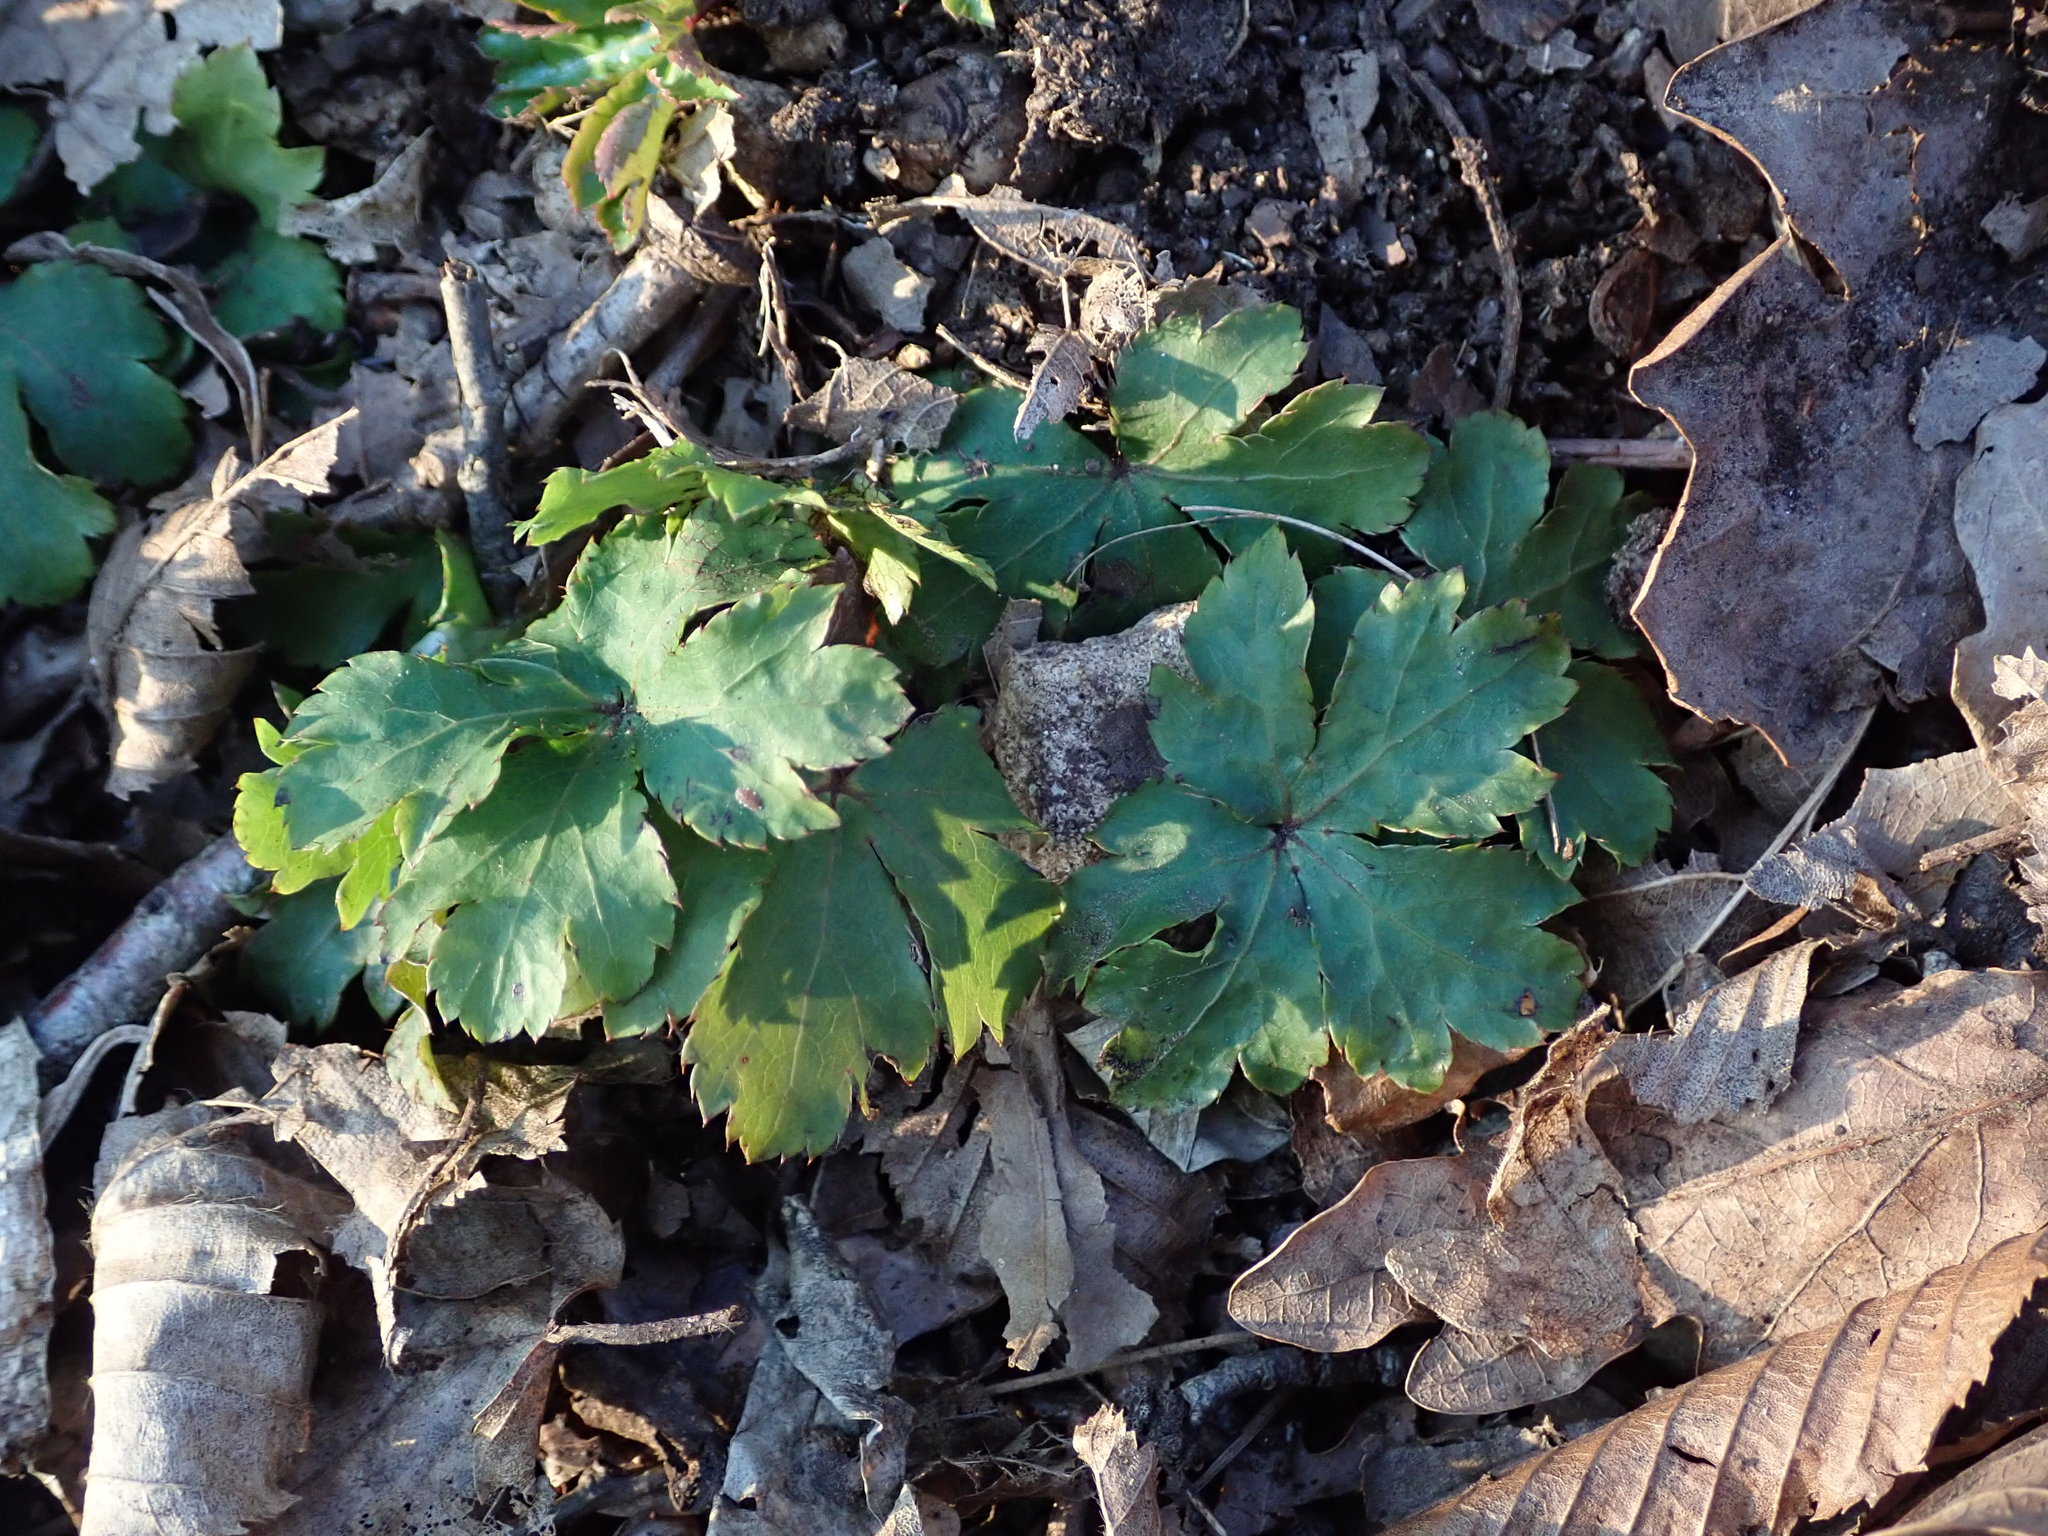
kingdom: Plantae
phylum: Tracheophyta
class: Magnoliopsida
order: Apiales
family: Apiaceae
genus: Sanicula
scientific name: Sanicula europaea
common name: Sanicle
